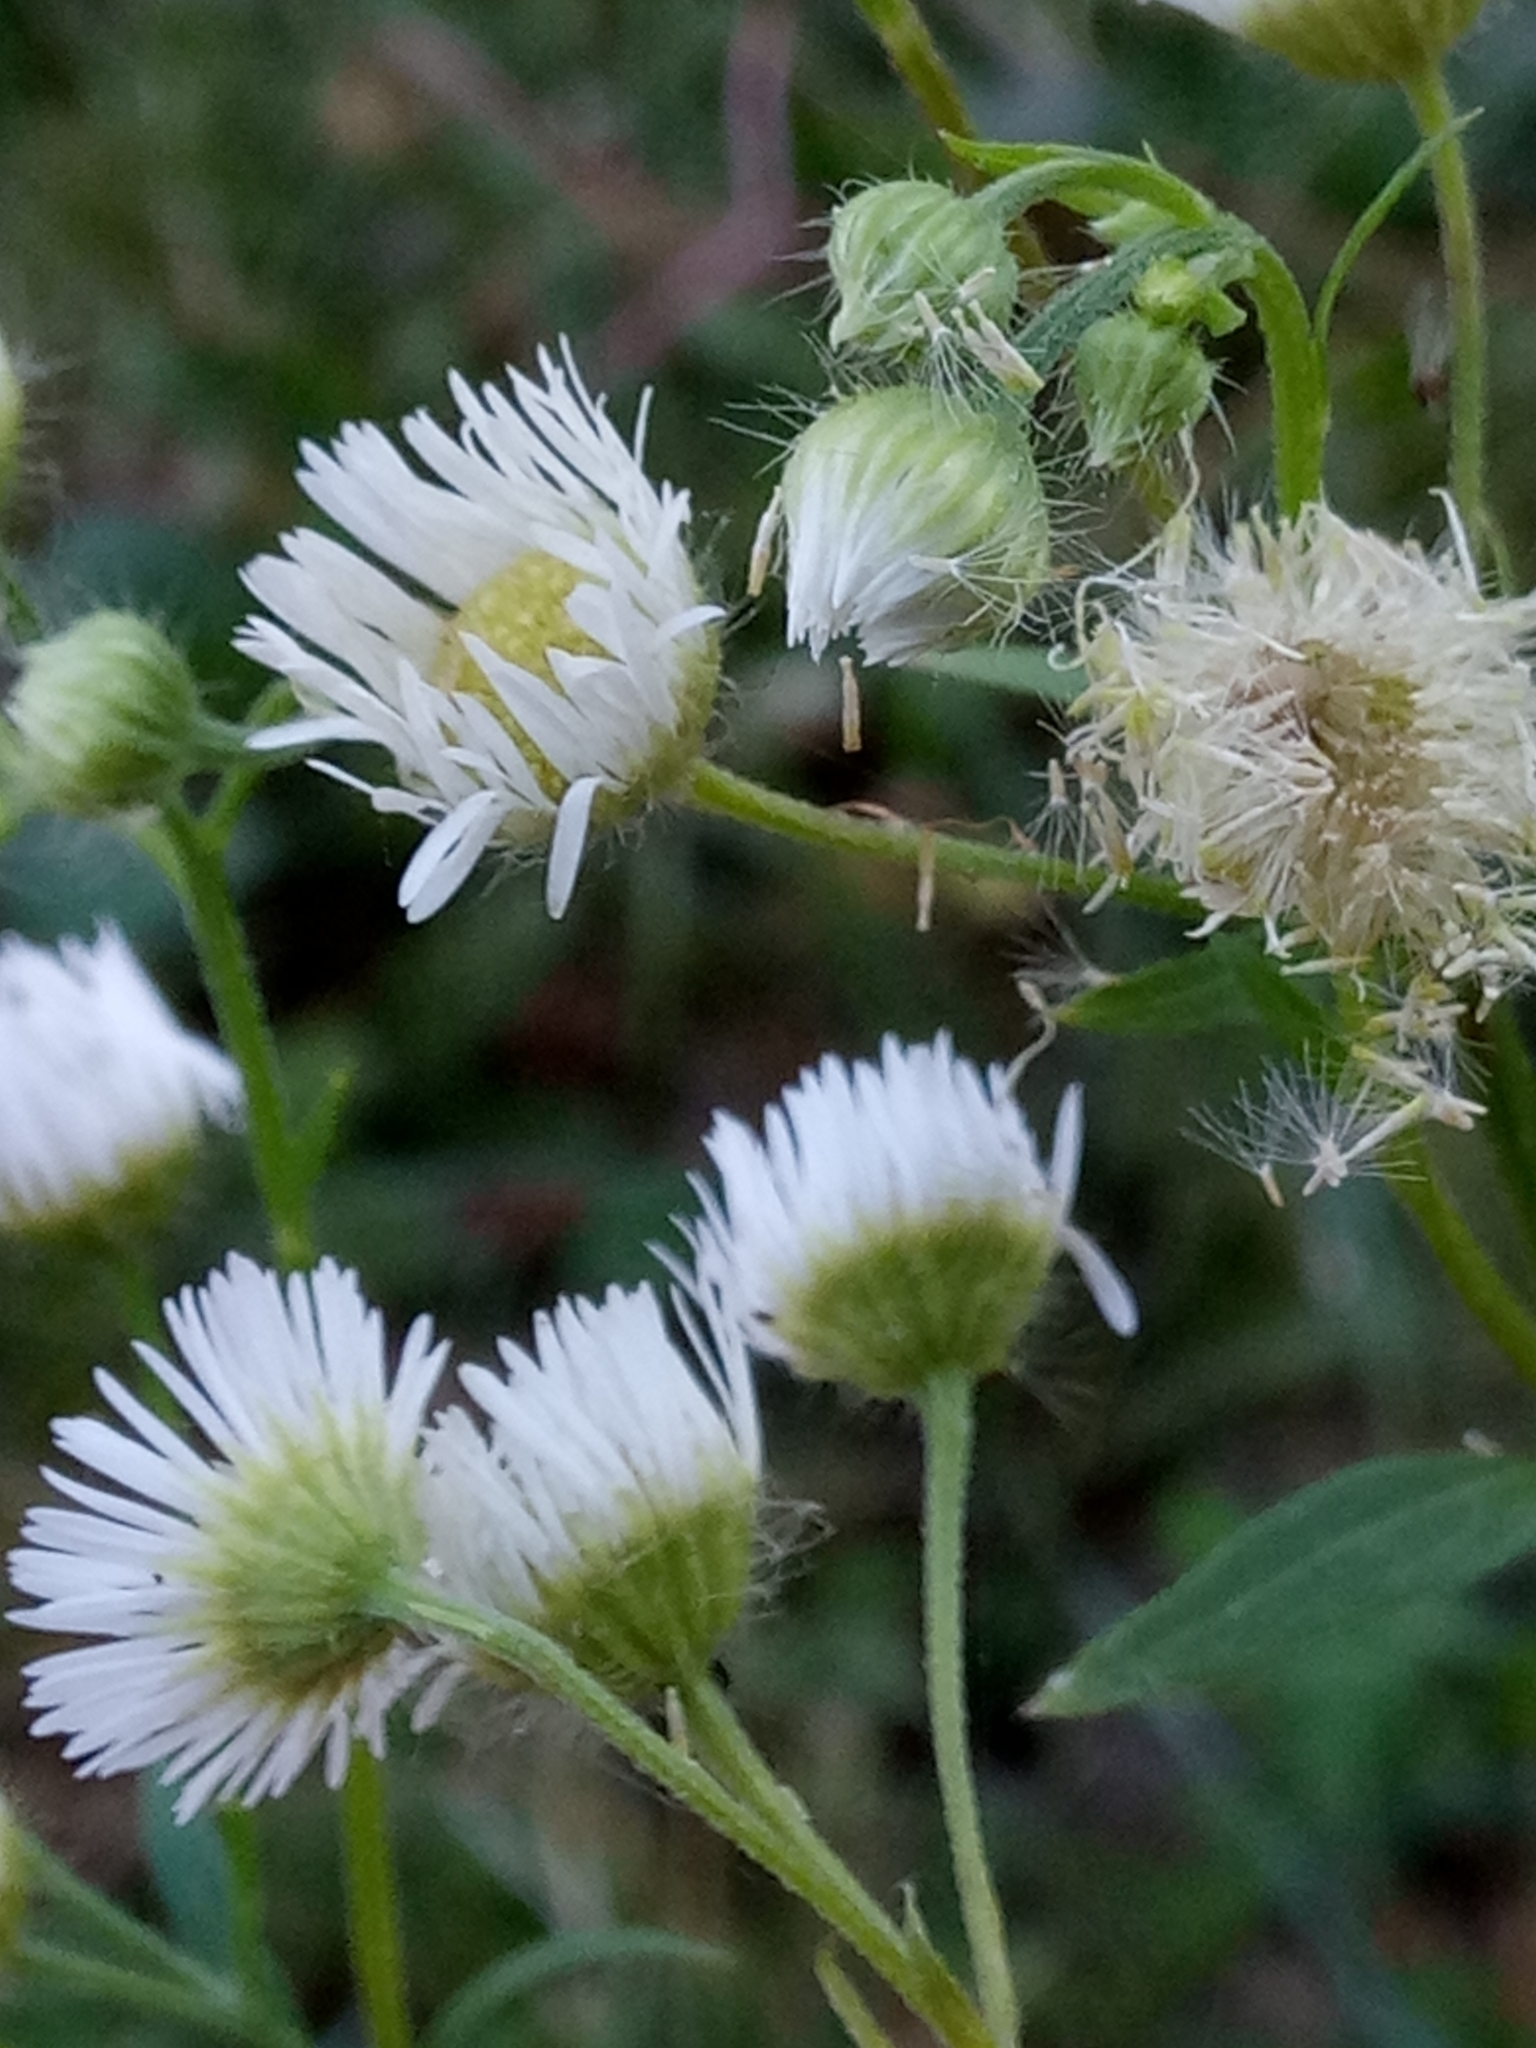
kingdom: Plantae
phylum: Tracheophyta
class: Magnoliopsida
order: Asterales
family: Asteraceae
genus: Erigeron
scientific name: Erigeron annuus
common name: Tall fleabane
